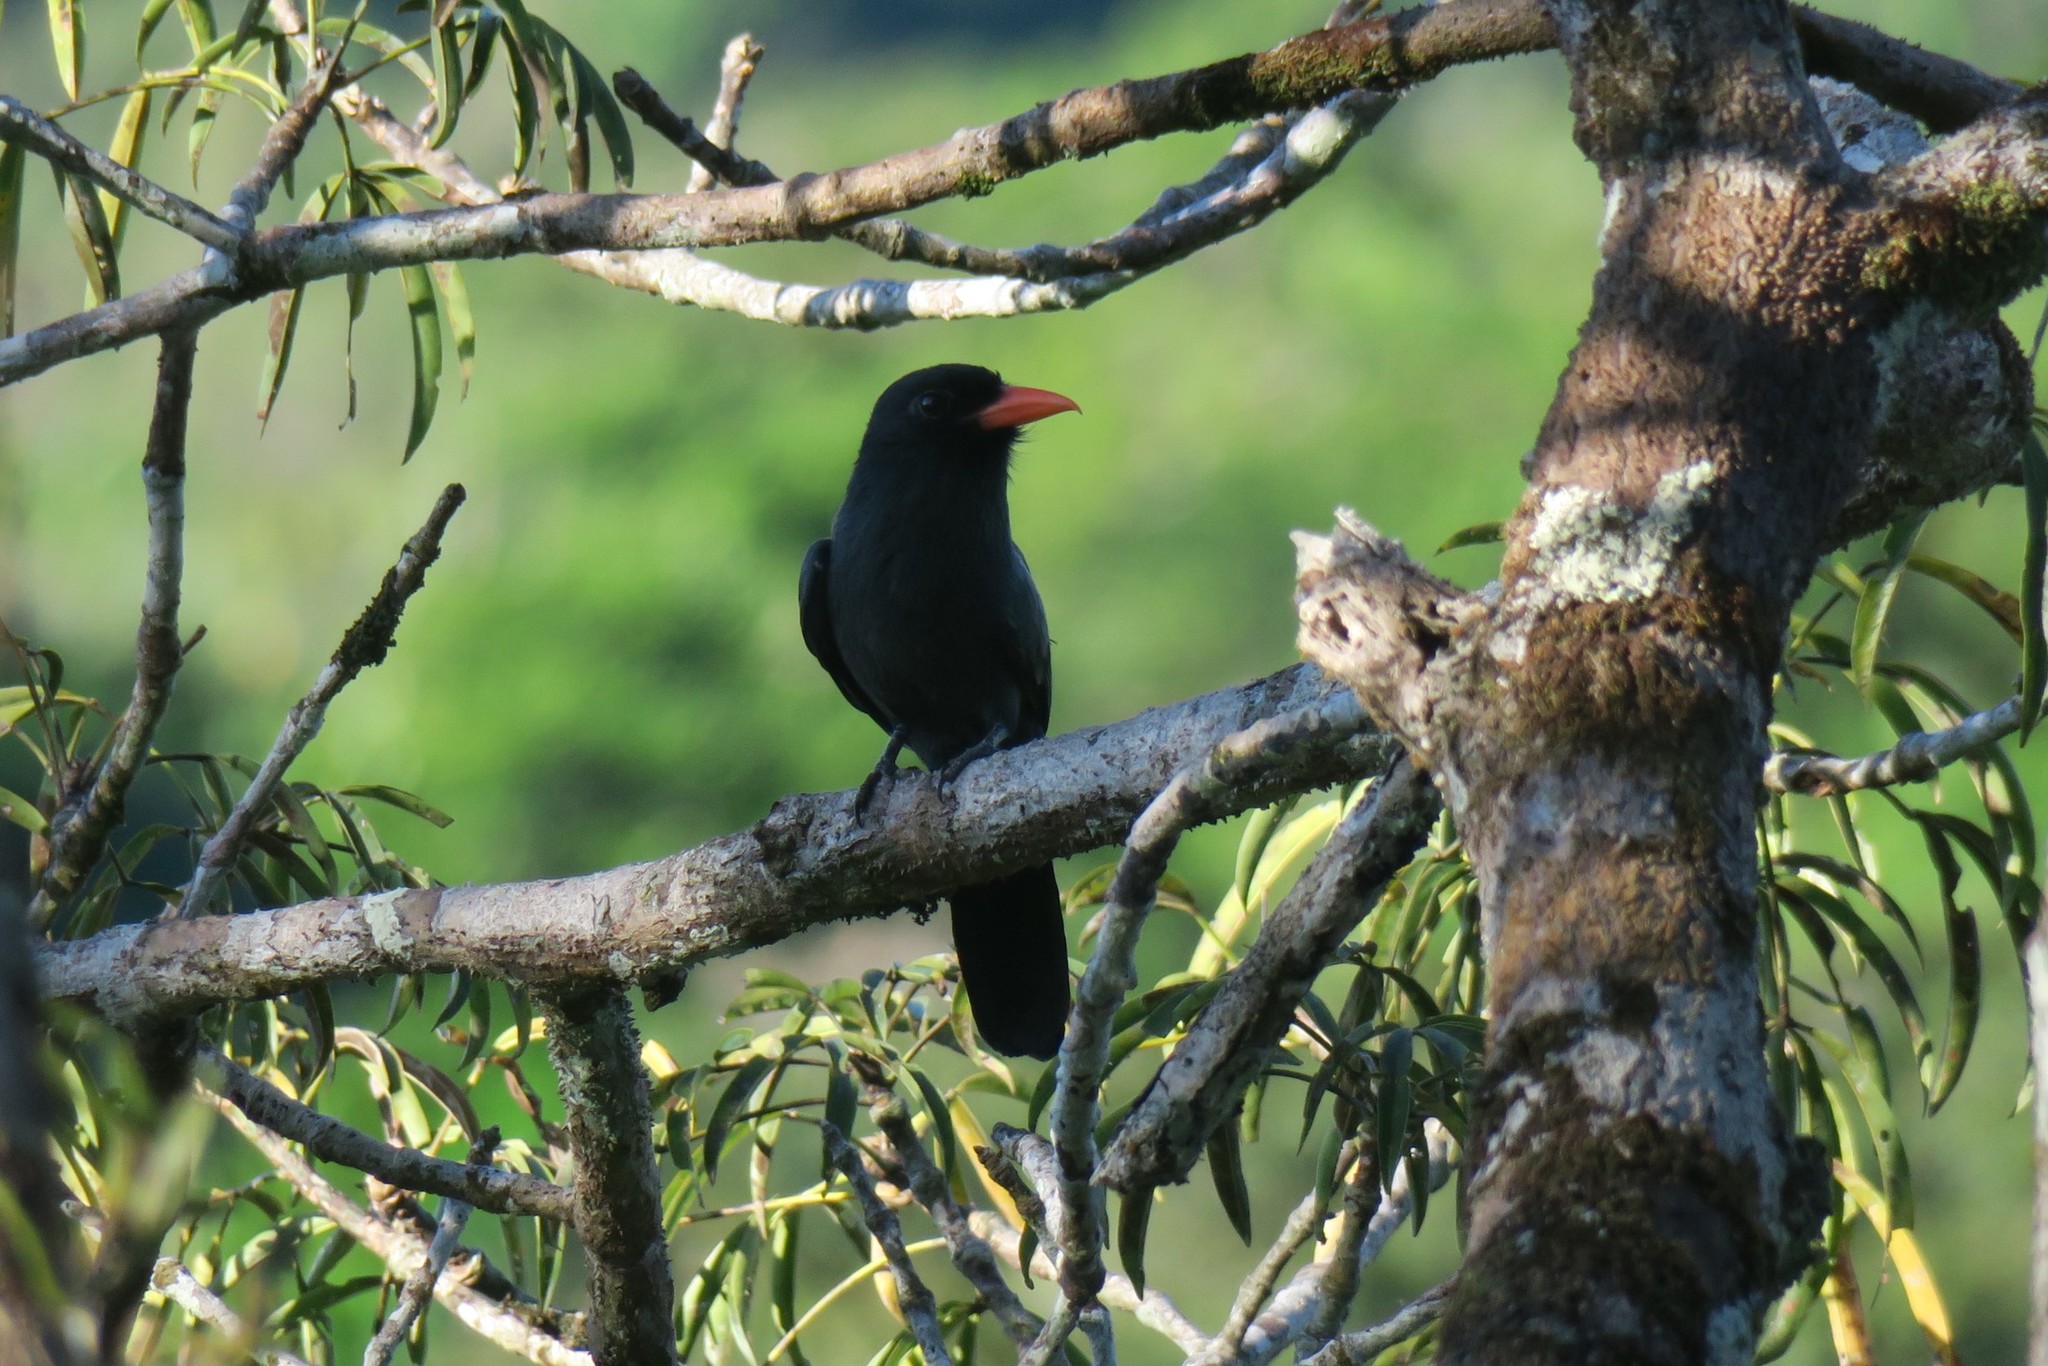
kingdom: Animalia
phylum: Chordata
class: Aves
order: Piciformes
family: Bucconidae
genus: Monasa
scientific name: Monasa nigrifrons
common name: Black-fronted nunbird
